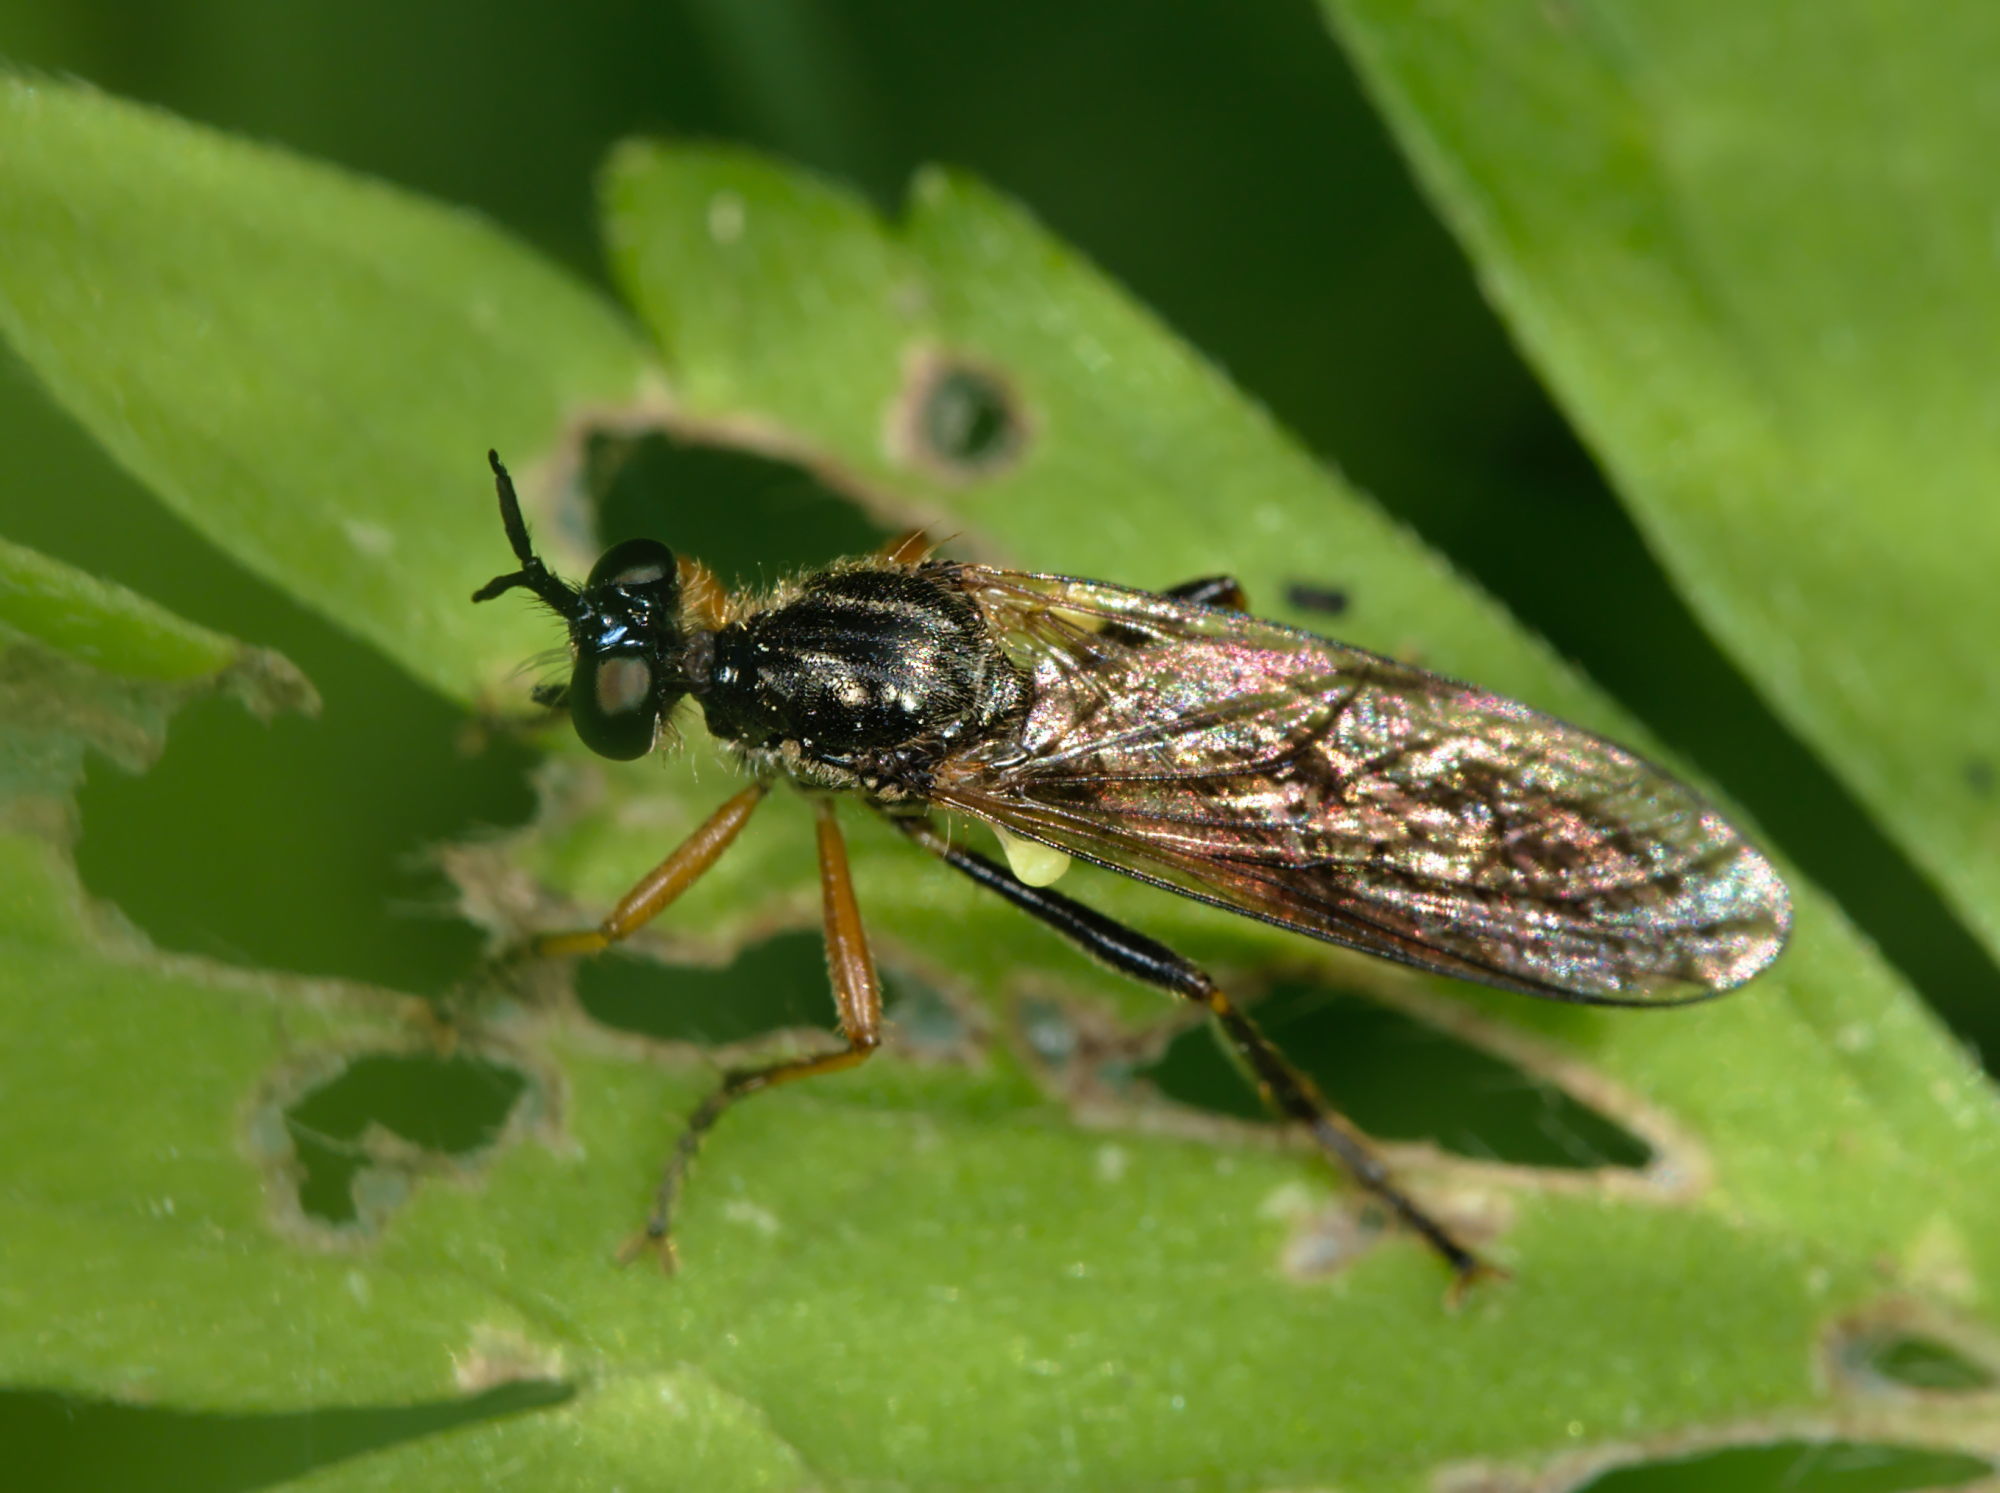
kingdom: Animalia
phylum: Arthropoda
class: Insecta
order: Diptera
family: Asilidae
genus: Dioctria
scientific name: Dioctria hyalipennis
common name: Stripe-legged robberfly
